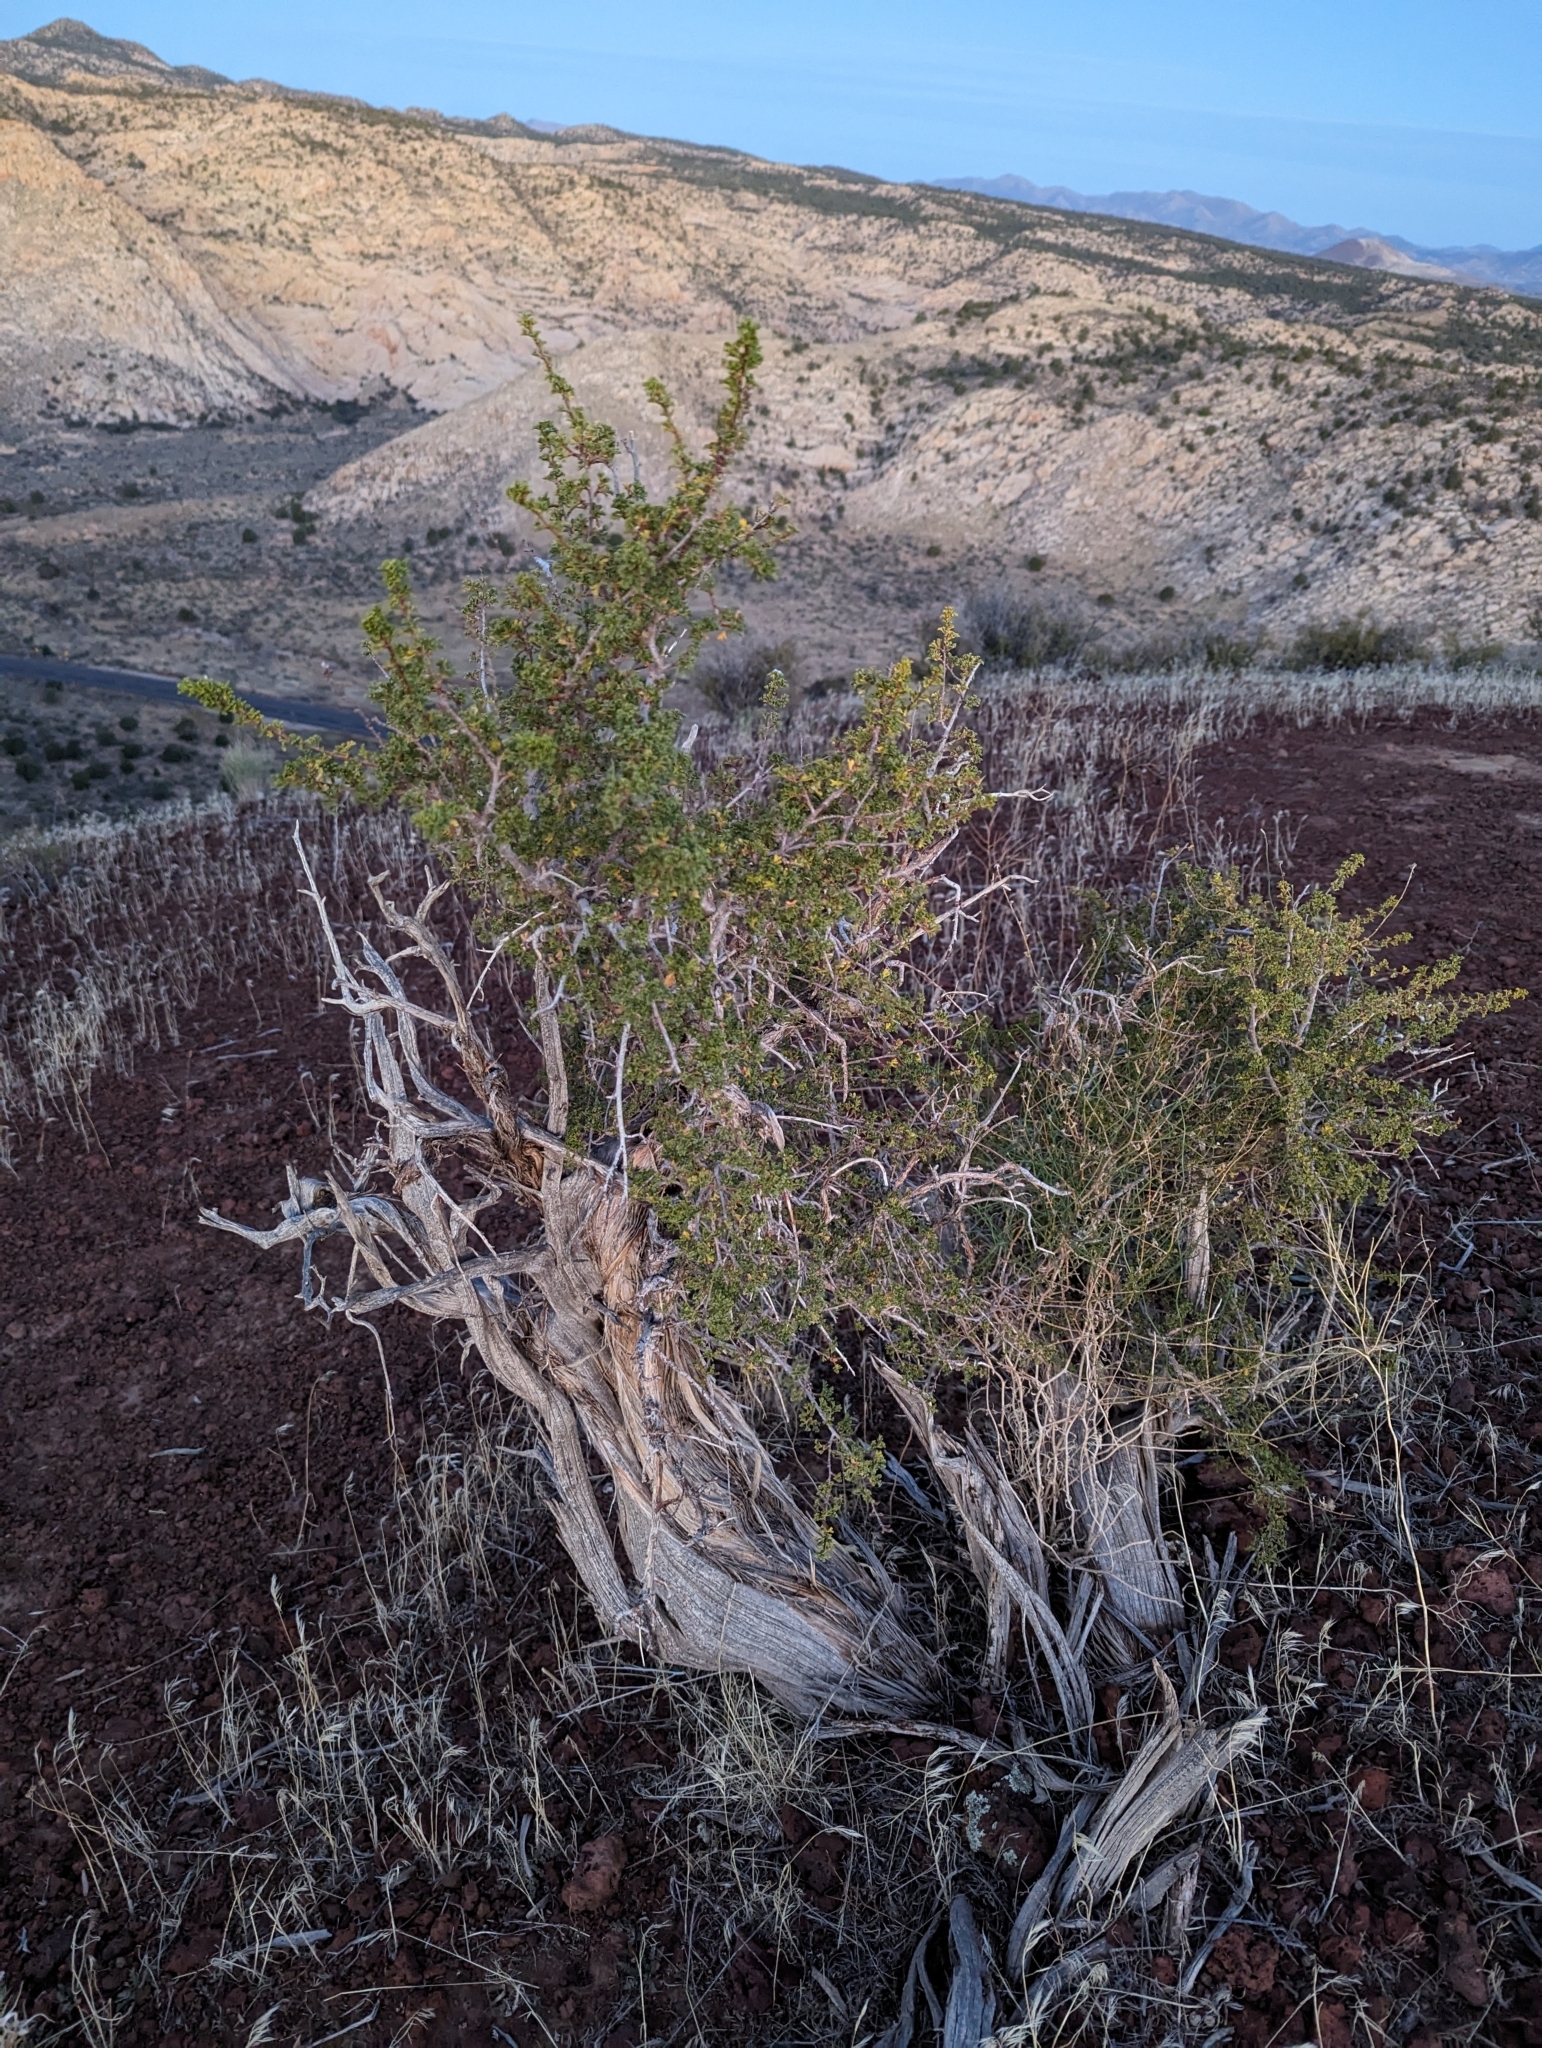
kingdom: Plantae
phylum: Tracheophyta
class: Magnoliopsida
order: Rosales
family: Rosaceae
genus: Purshia
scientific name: Purshia stansburiana
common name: Stansbury's cliffrose
